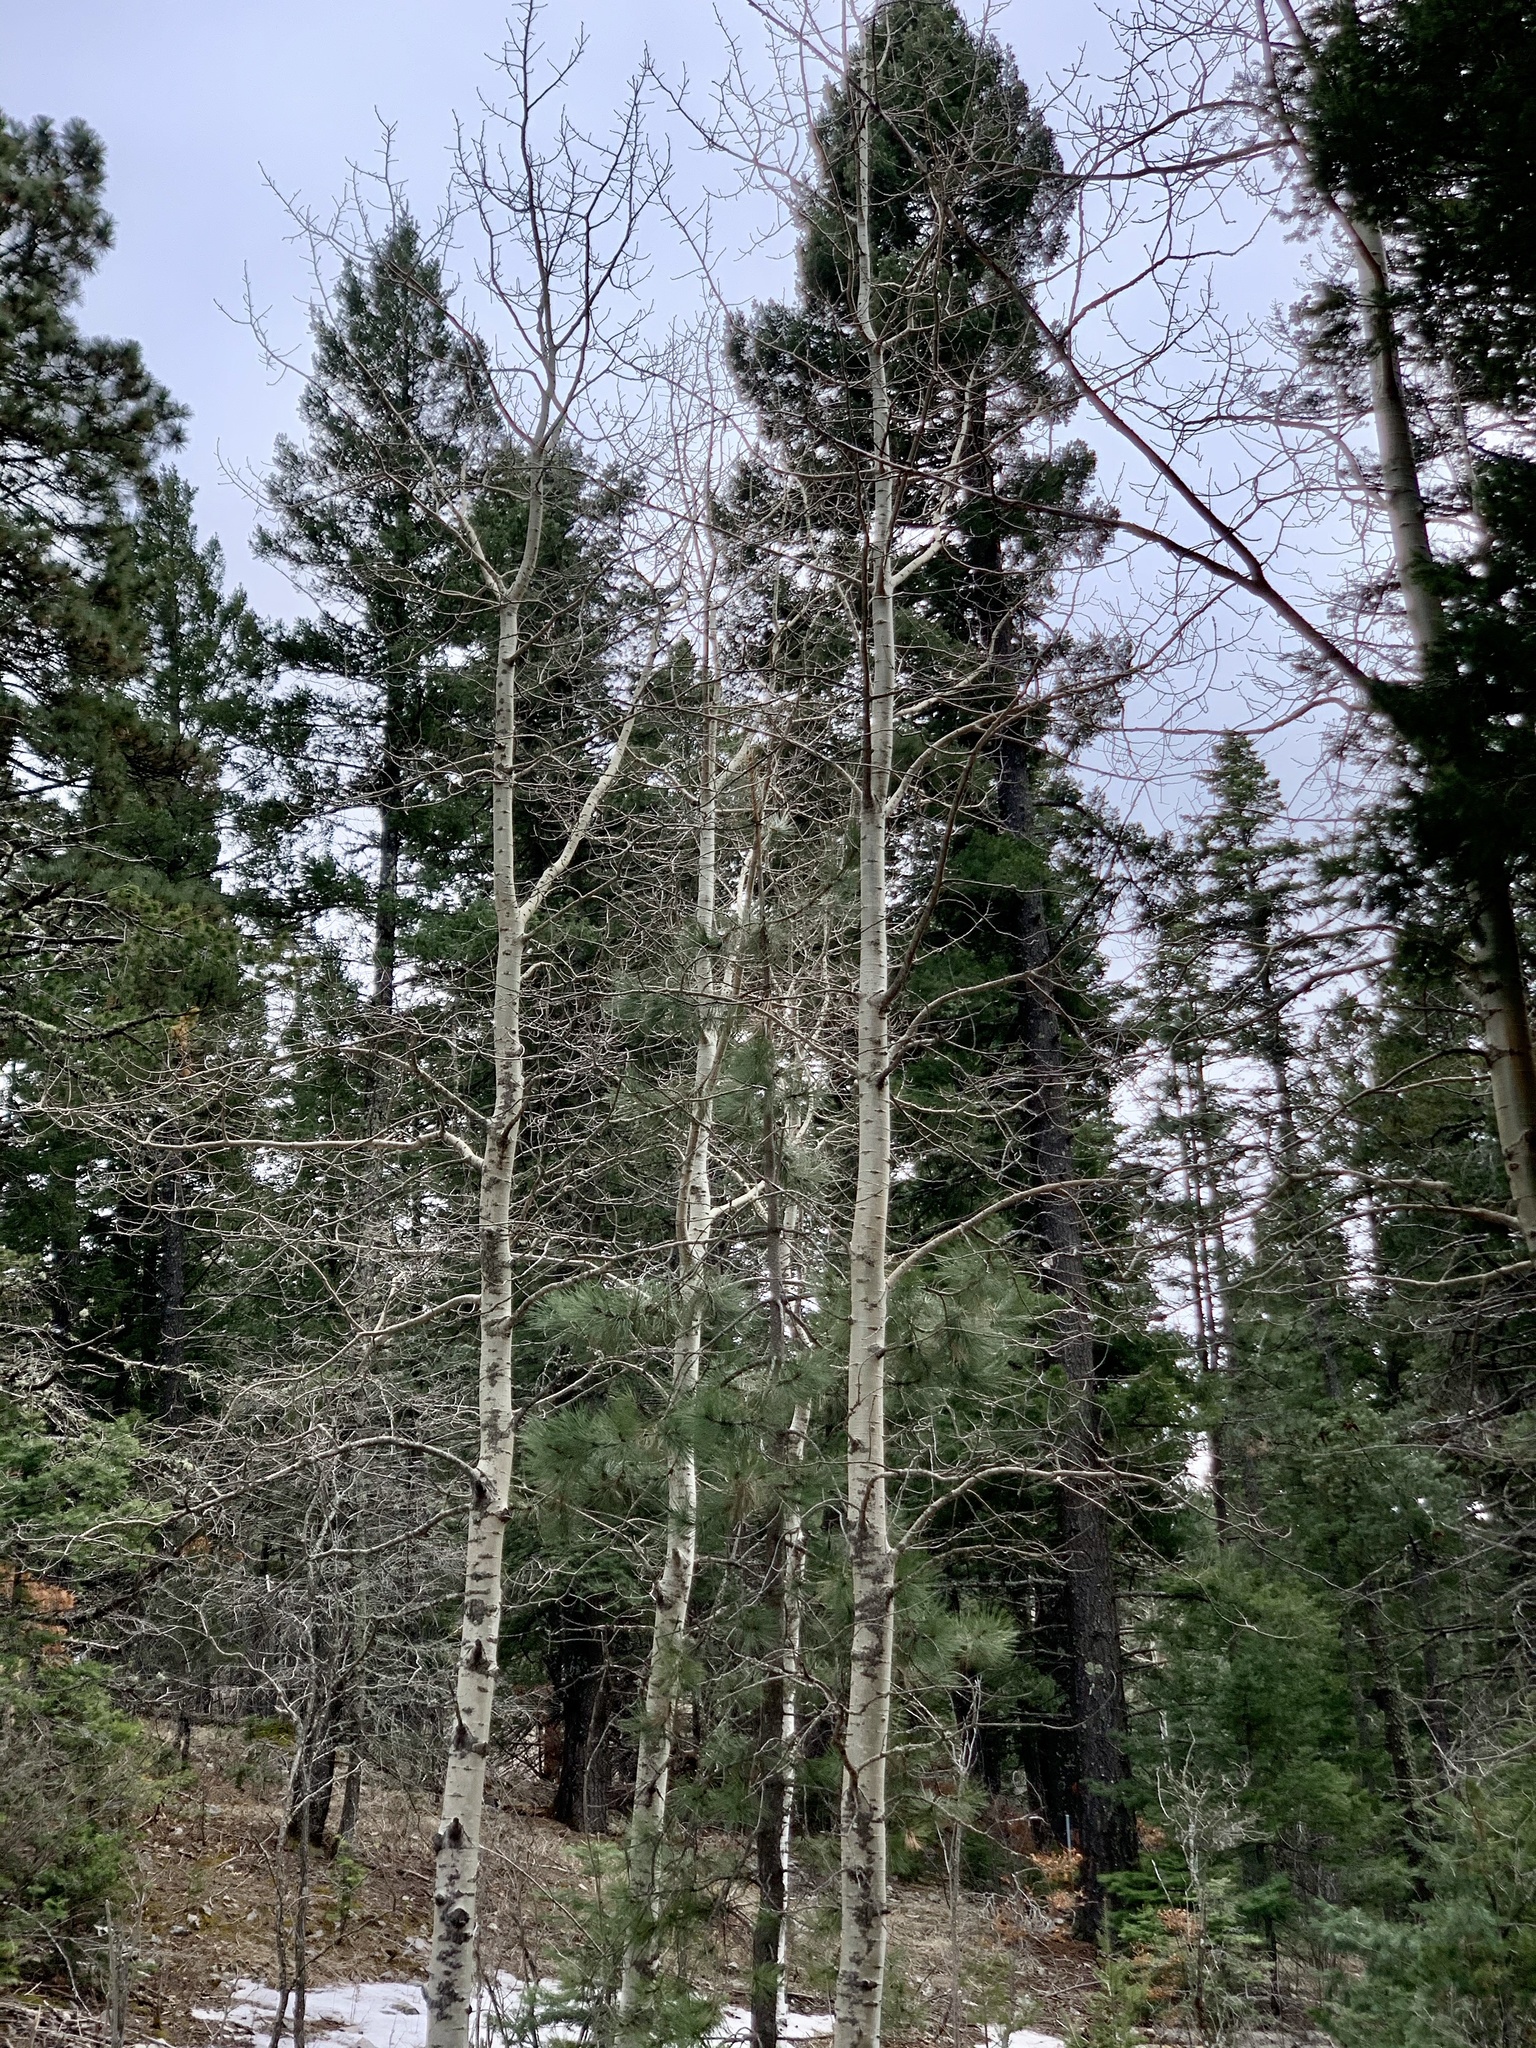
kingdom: Plantae
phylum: Tracheophyta
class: Magnoliopsida
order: Malpighiales
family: Salicaceae
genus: Populus
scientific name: Populus tremuloides
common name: Quaking aspen
